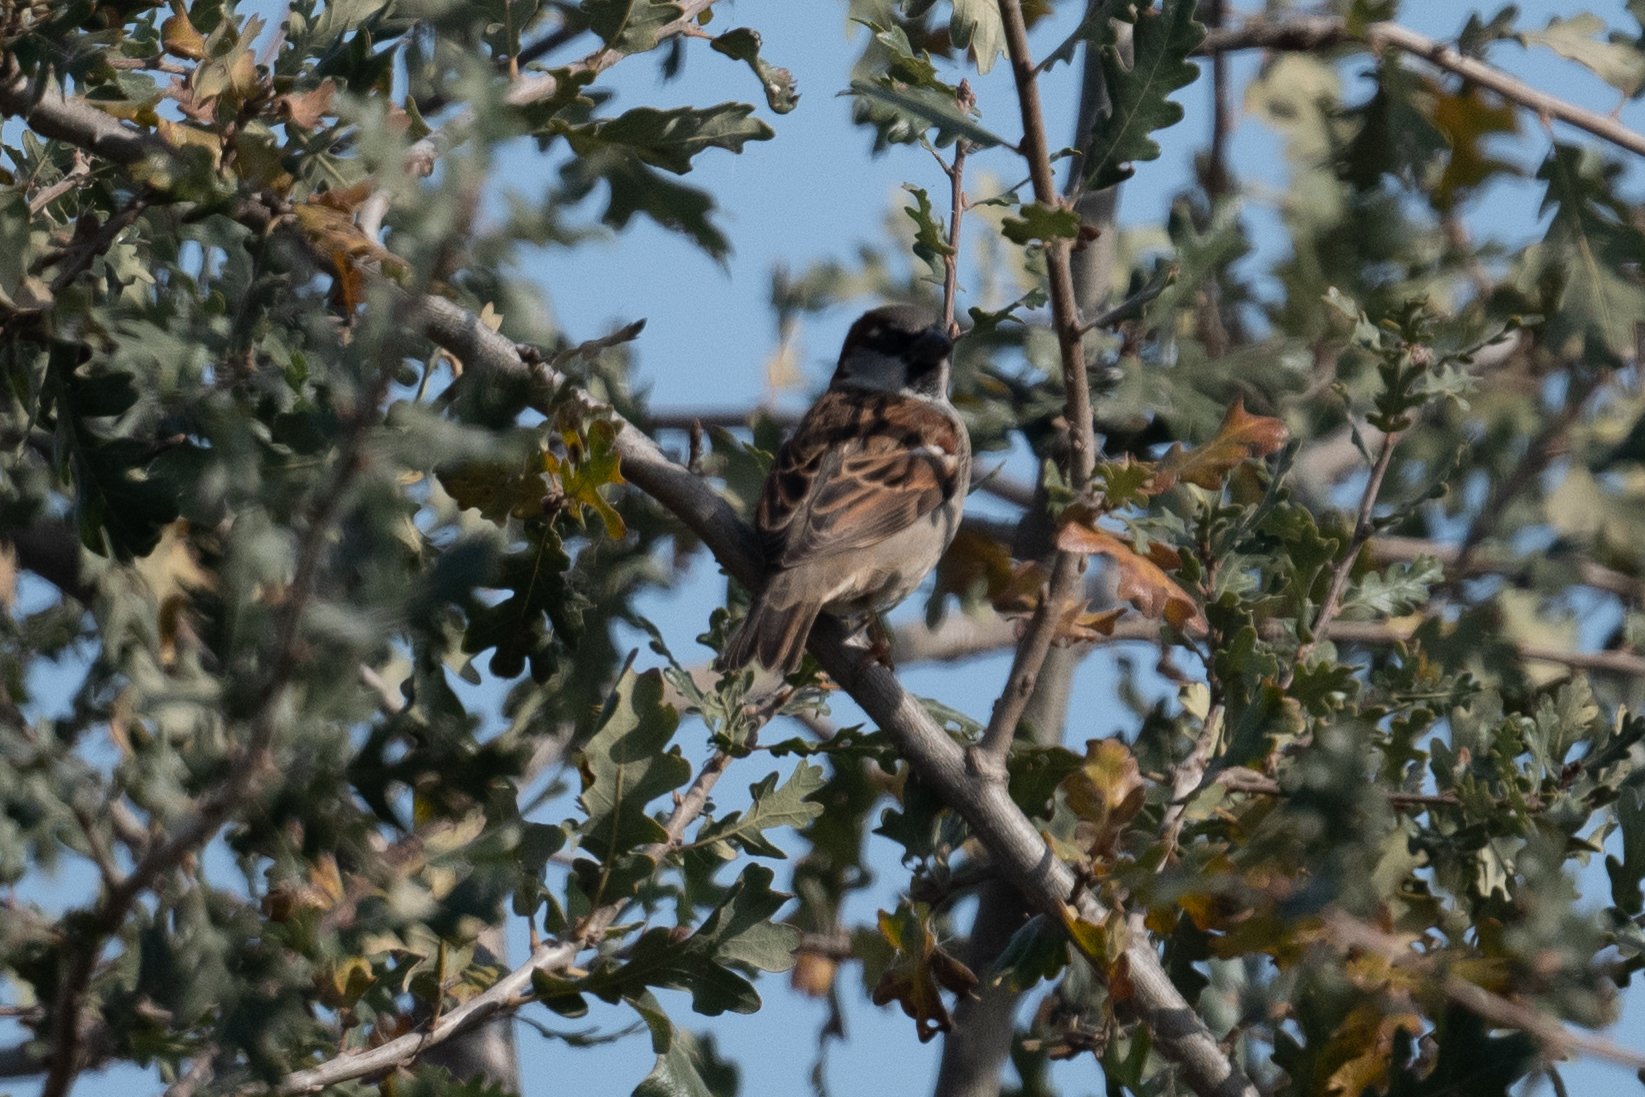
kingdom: Animalia
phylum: Chordata
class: Aves
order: Passeriformes
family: Passeridae
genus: Passer
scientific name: Passer domesticus
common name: House sparrow
